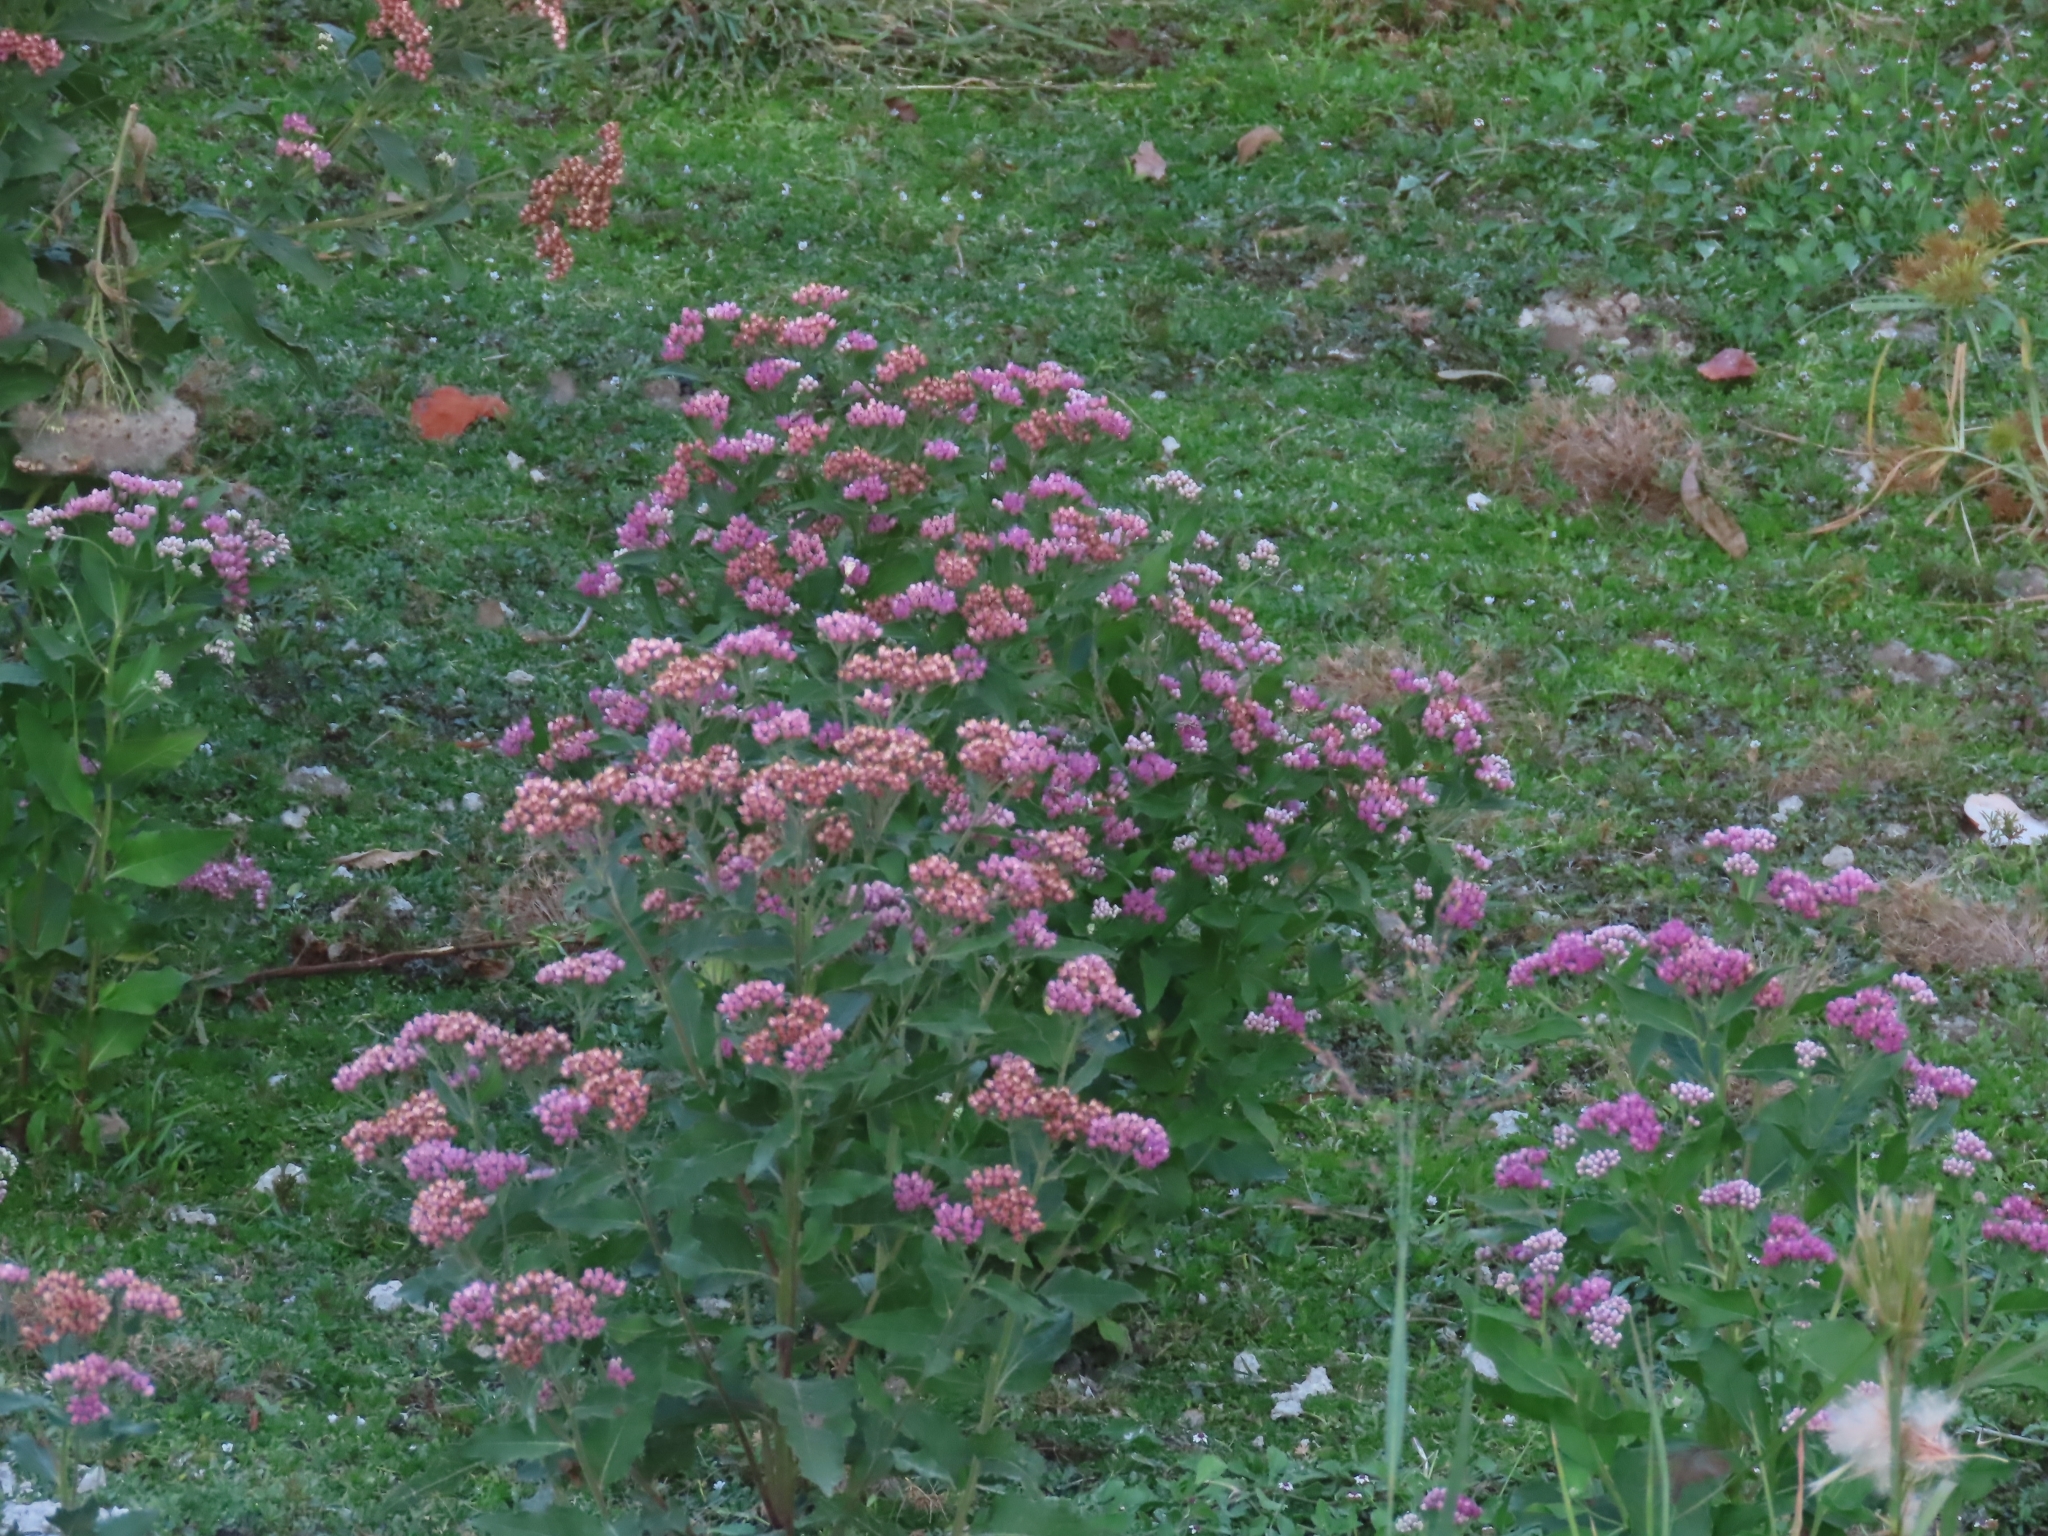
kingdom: Plantae
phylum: Tracheophyta
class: Magnoliopsida
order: Asterales
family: Asteraceae
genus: Pluchea
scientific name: Pluchea odorata
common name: Saltmarsh fleabane
